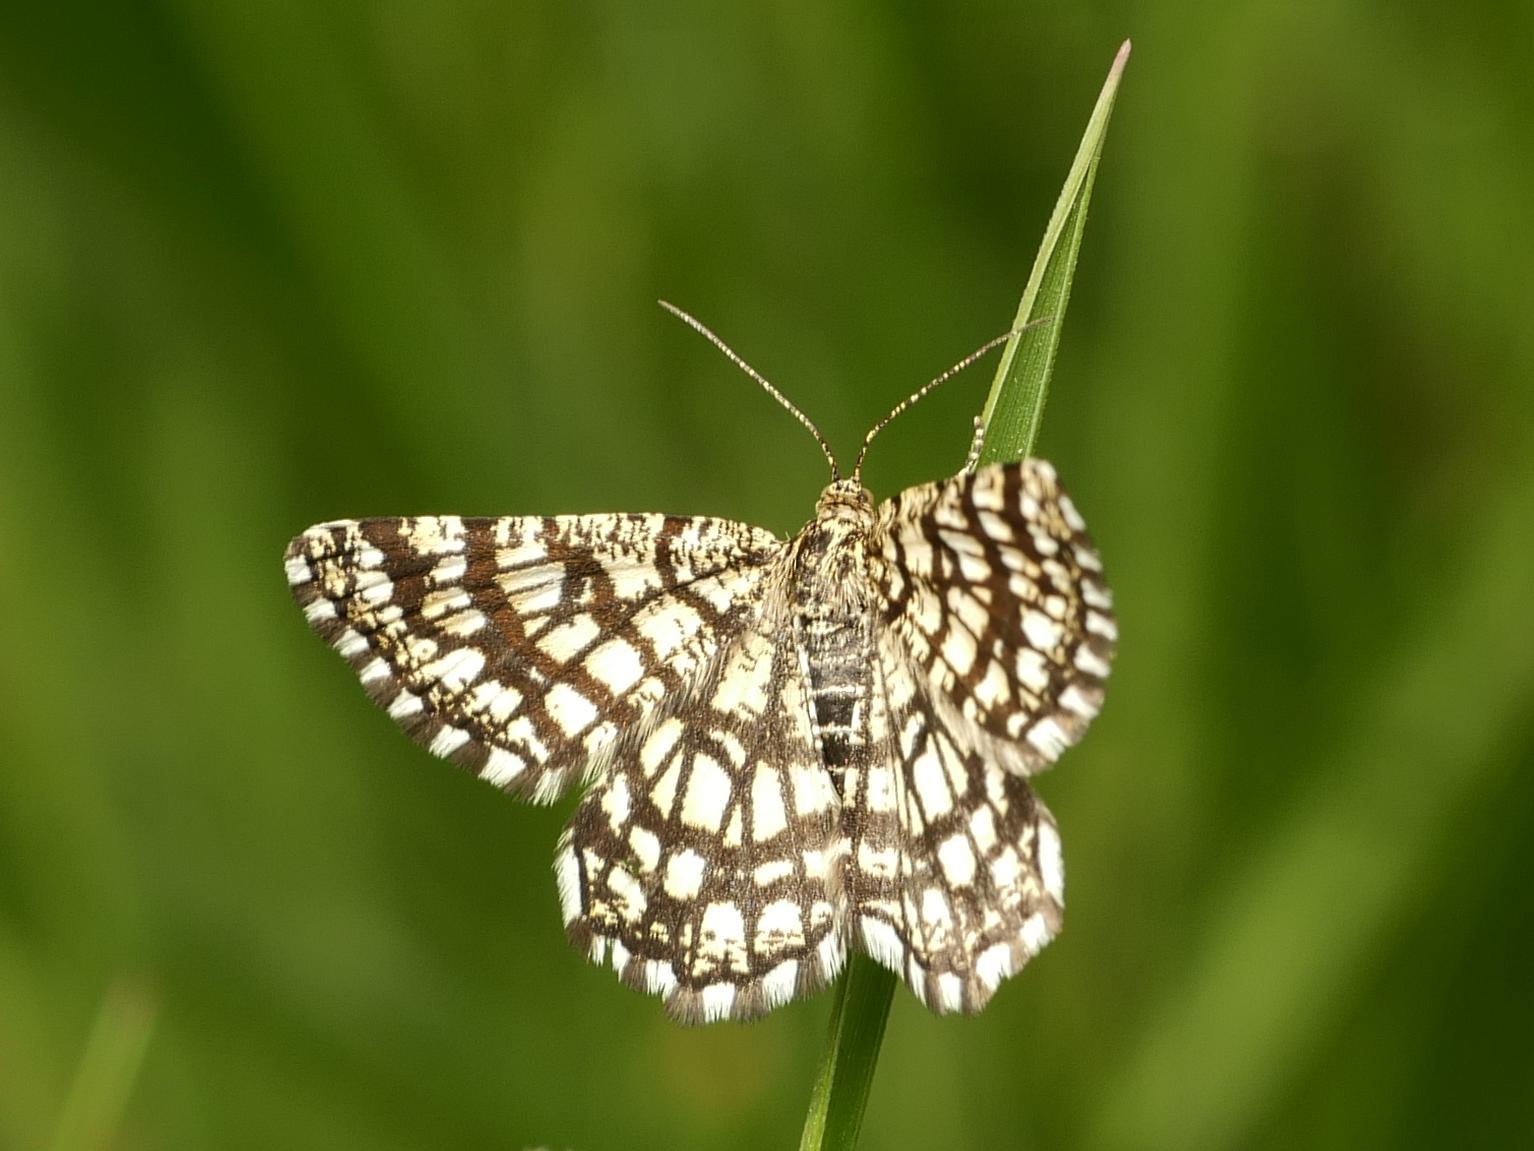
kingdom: Animalia
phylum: Arthropoda
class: Insecta
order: Lepidoptera
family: Geometridae
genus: Chiasmia
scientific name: Chiasmia clathrata
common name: Latticed heath
